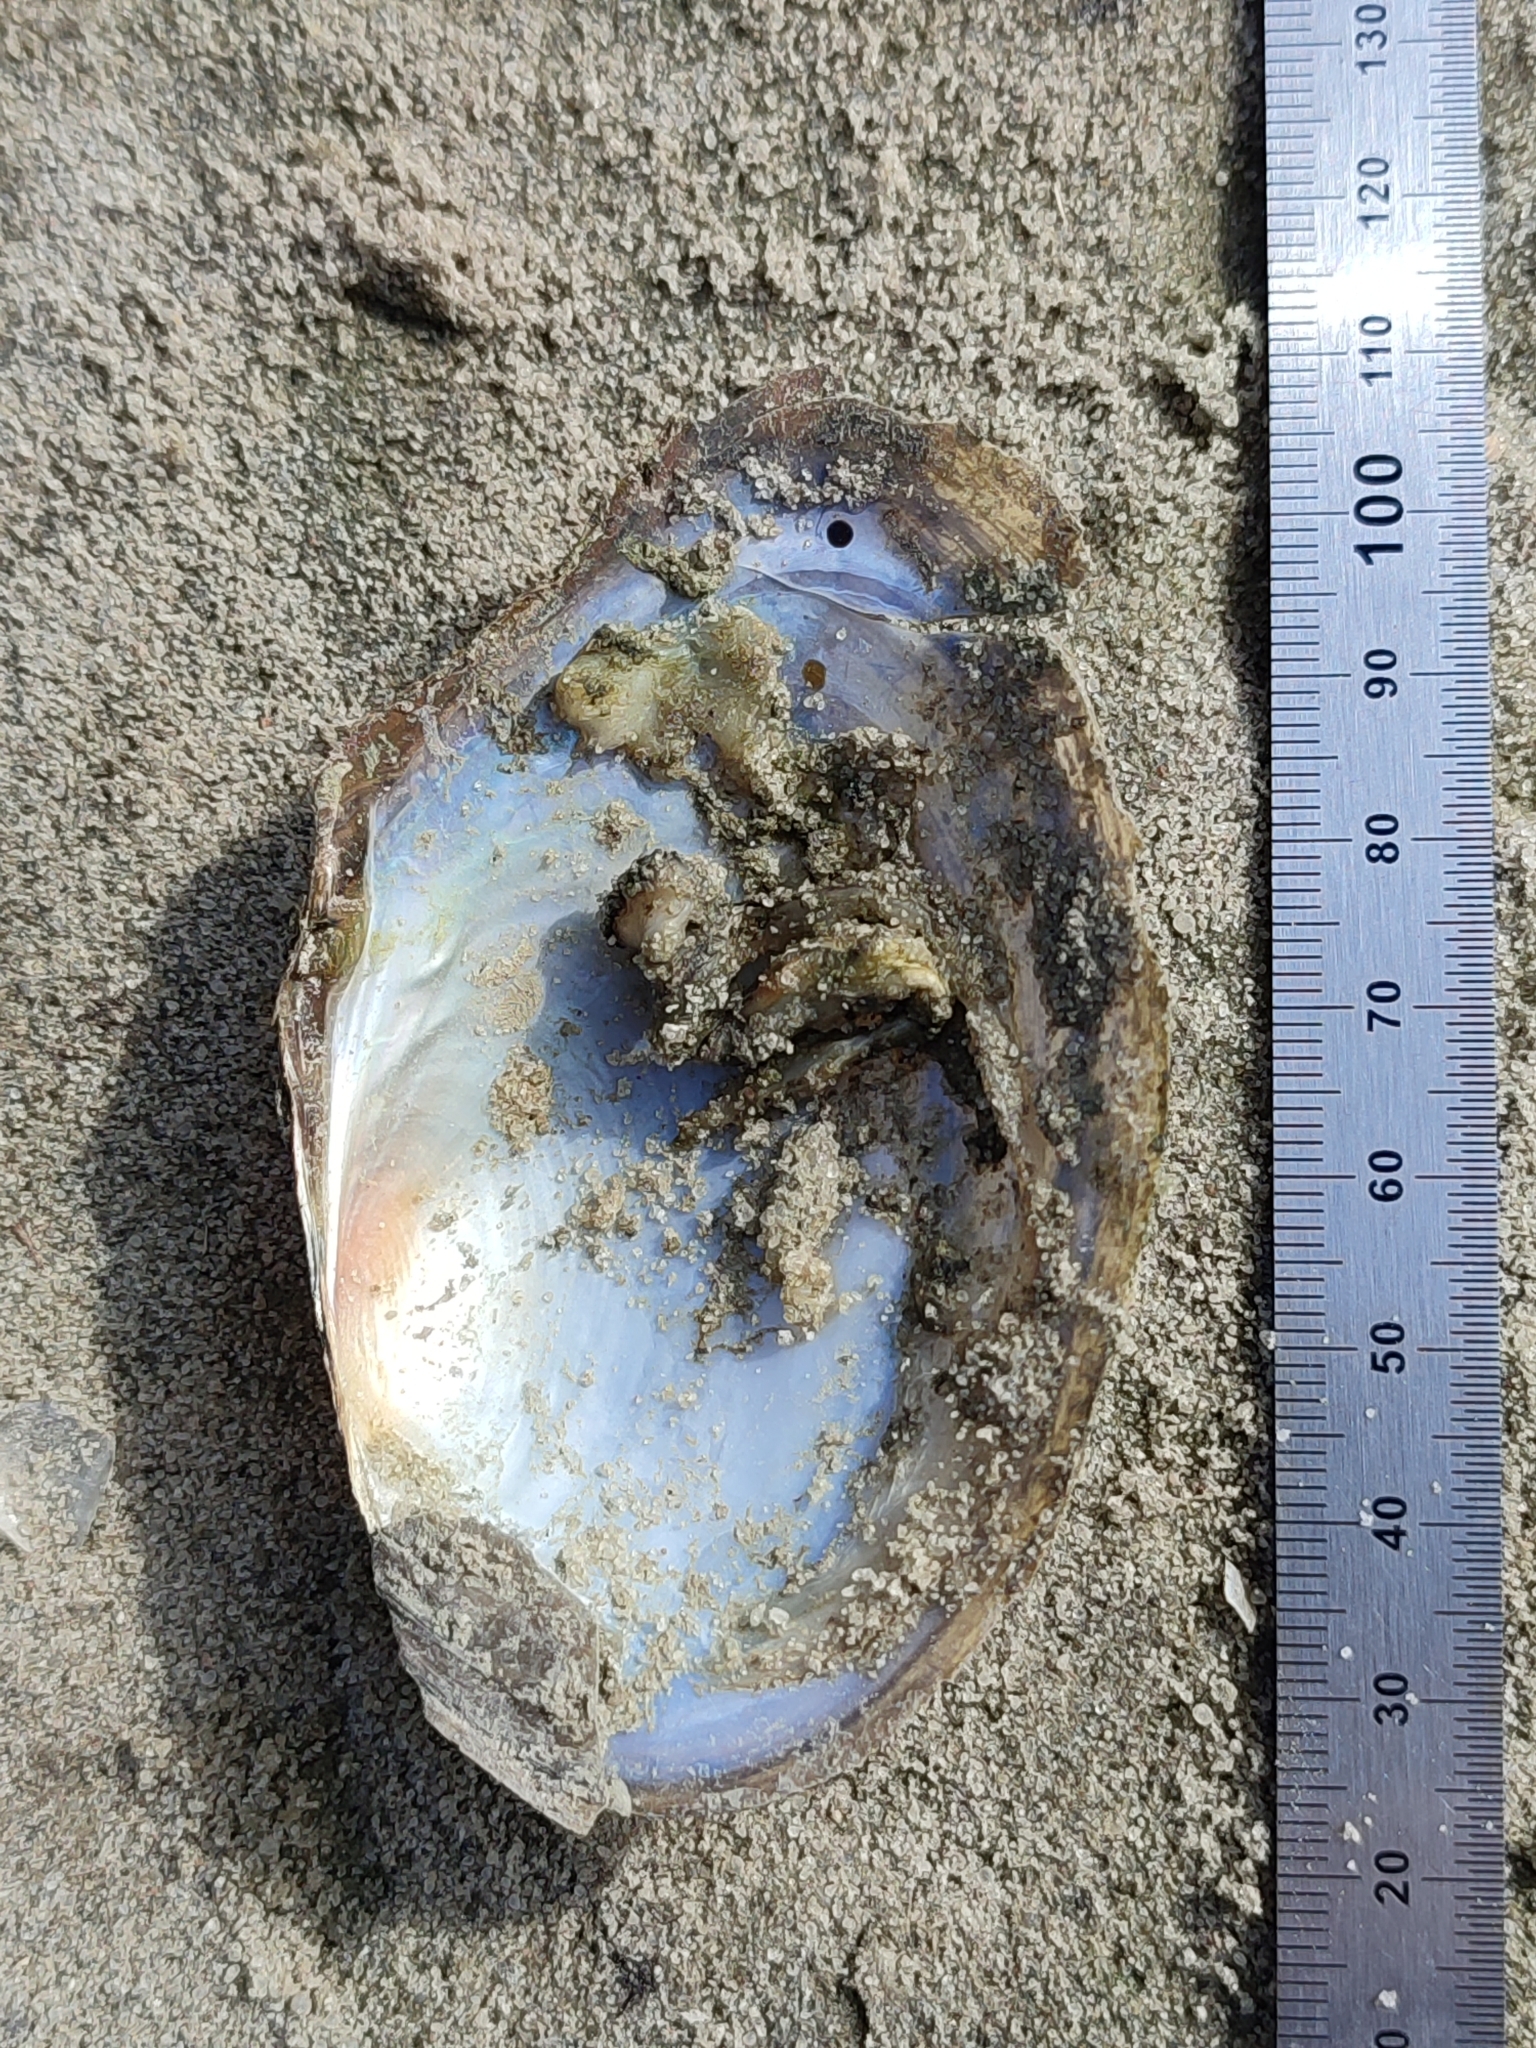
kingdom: Animalia
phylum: Mollusca
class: Bivalvia
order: Unionida
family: Unionidae
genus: Anodonta
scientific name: Anodonta anatina
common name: Duck mussel
